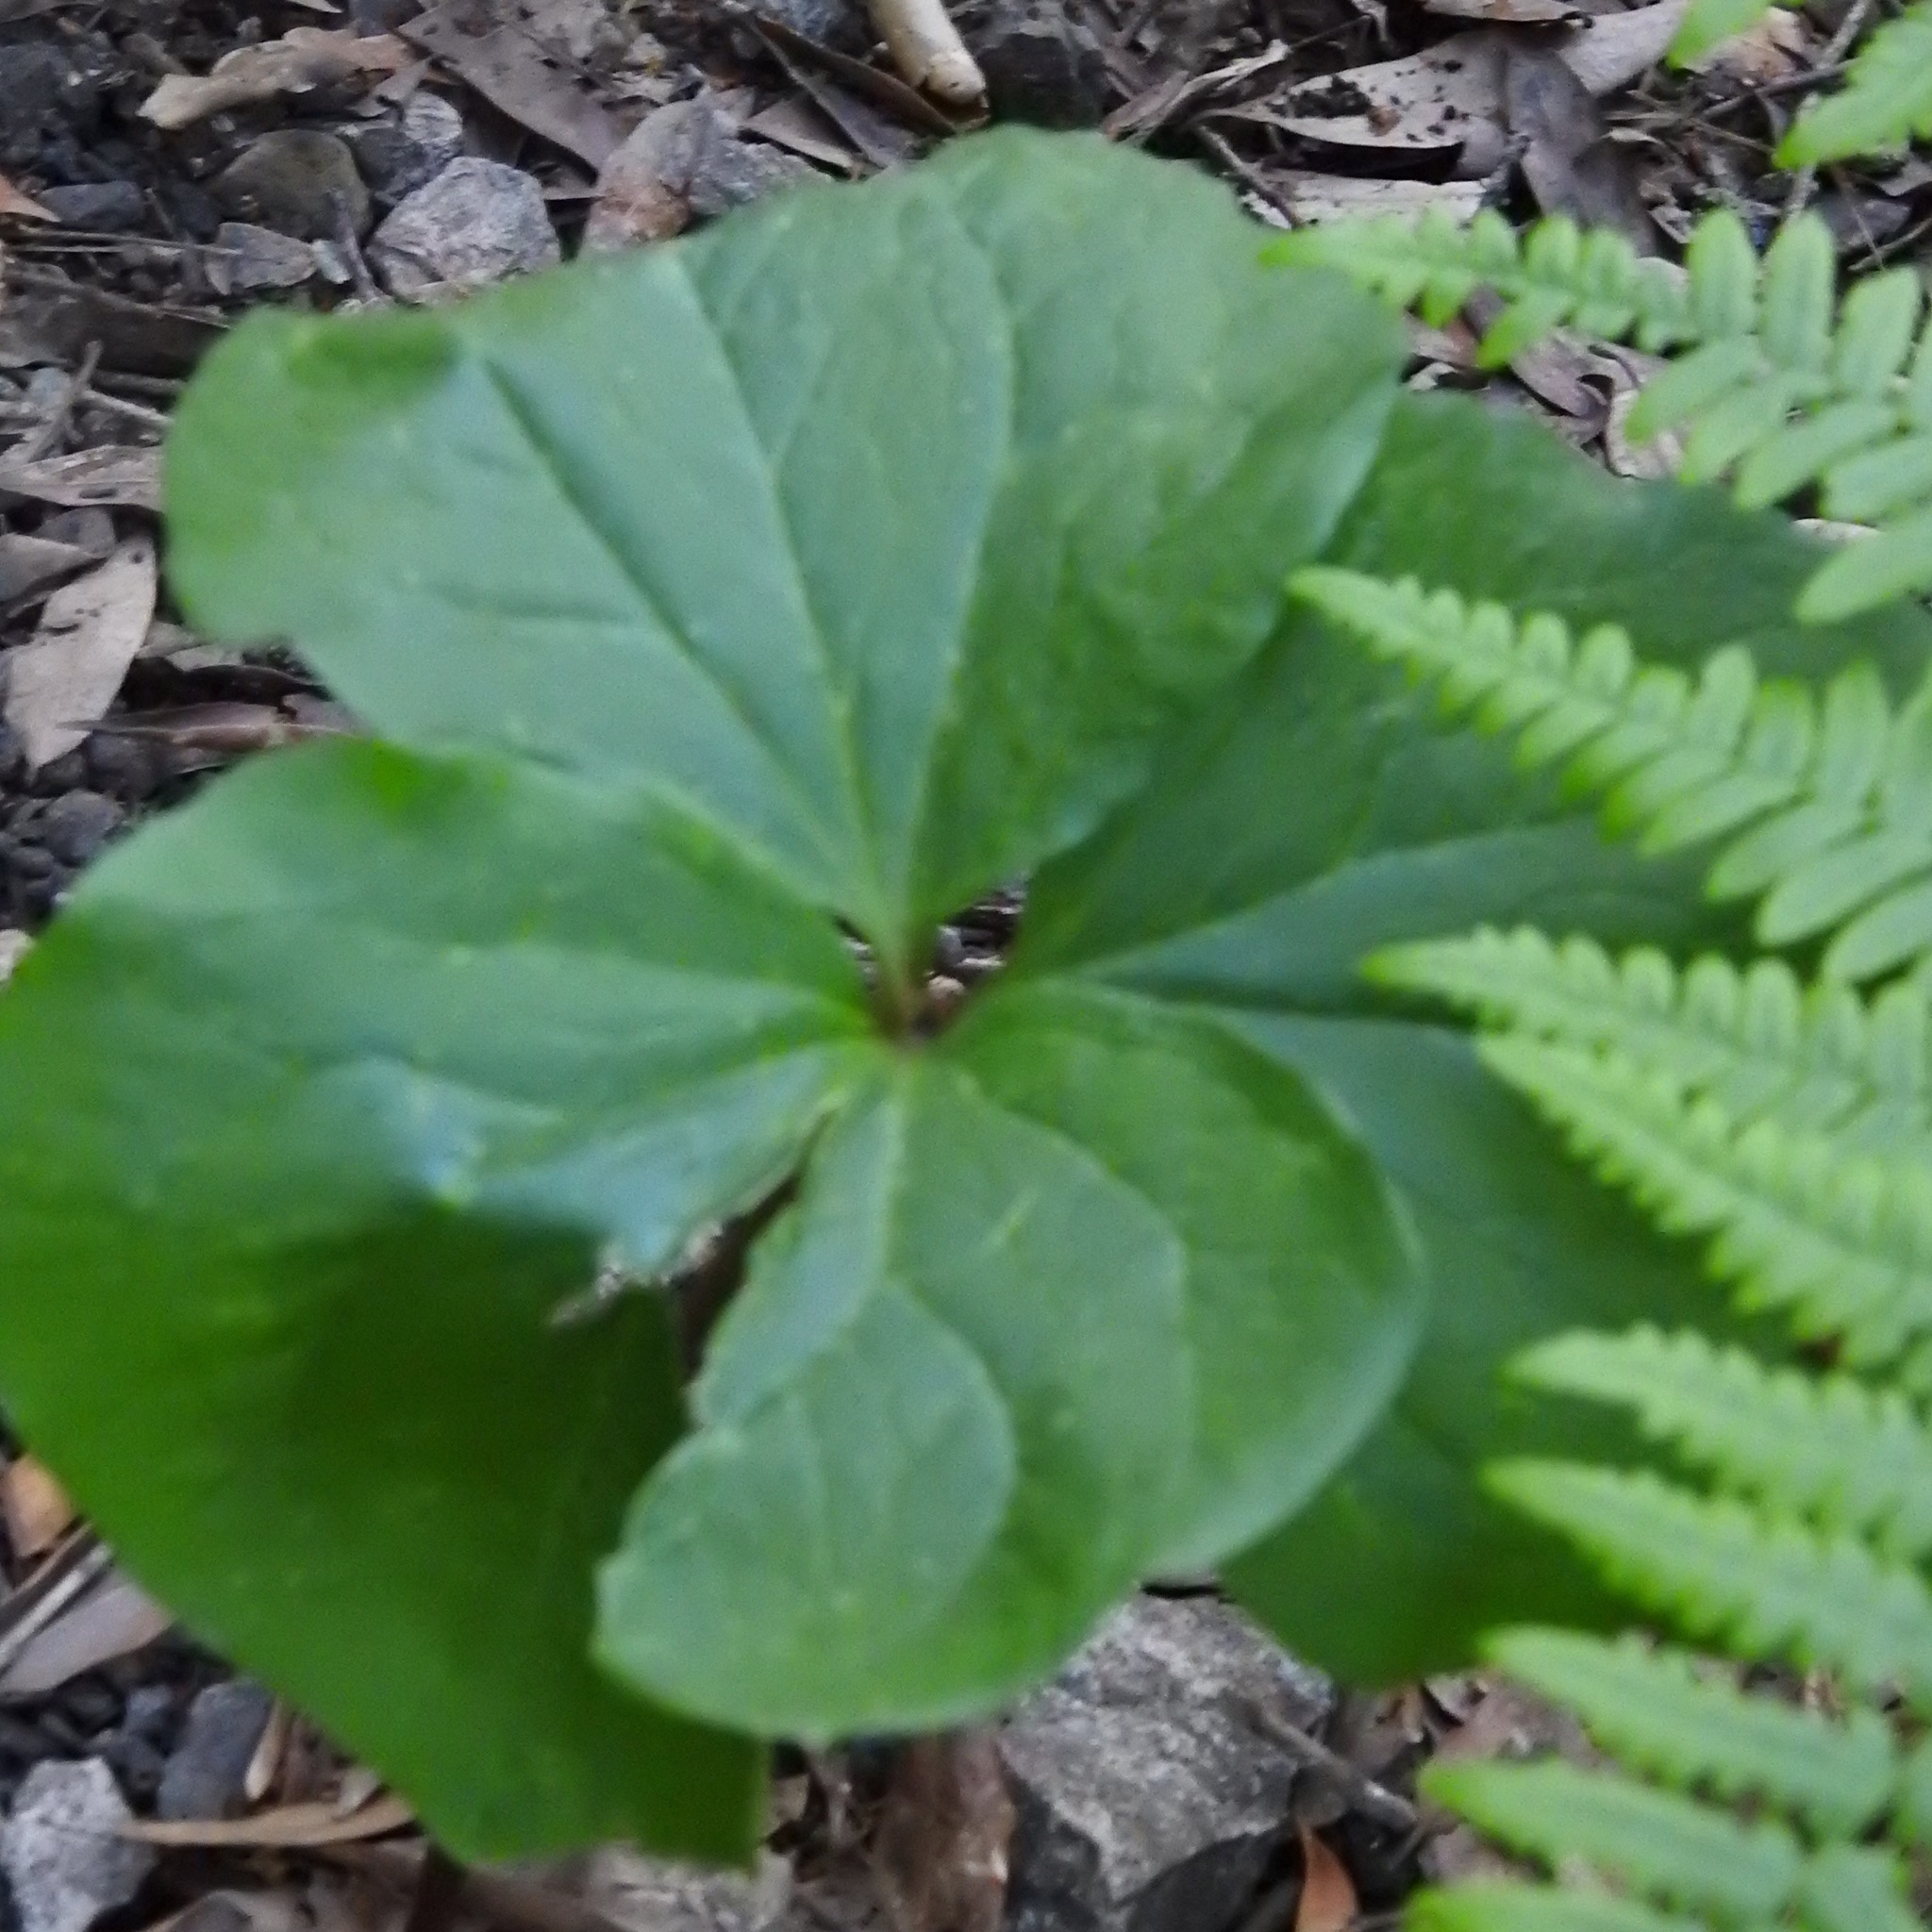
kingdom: Plantae
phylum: Tracheophyta
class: Liliopsida
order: Liliales
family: Melanthiaceae
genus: Trillium
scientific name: Trillium albidum
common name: Freeman's trillium
